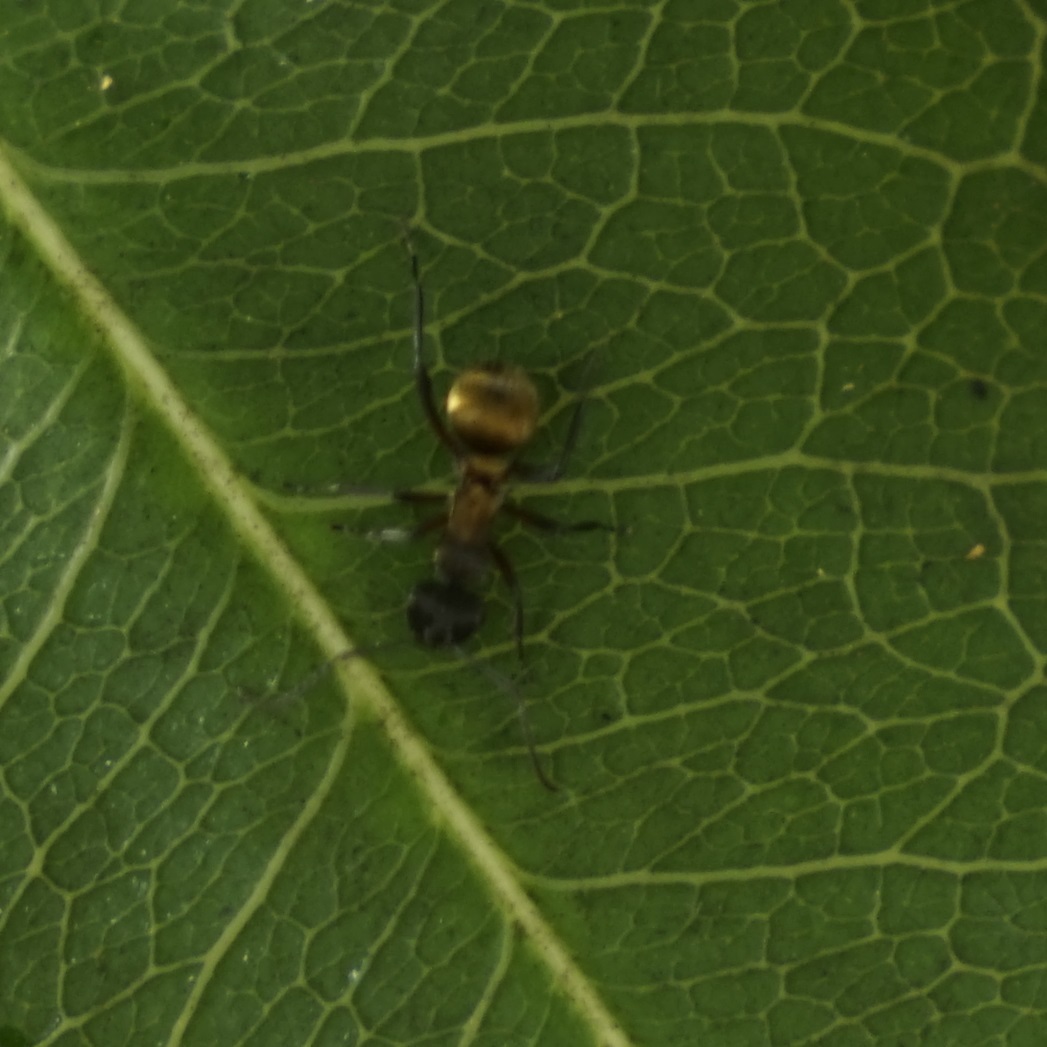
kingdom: Animalia
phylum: Arthropoda
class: Insecta
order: Hymenoptera
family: Formicidae
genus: Polyrhachis
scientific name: Polyrhachis rufifemur
